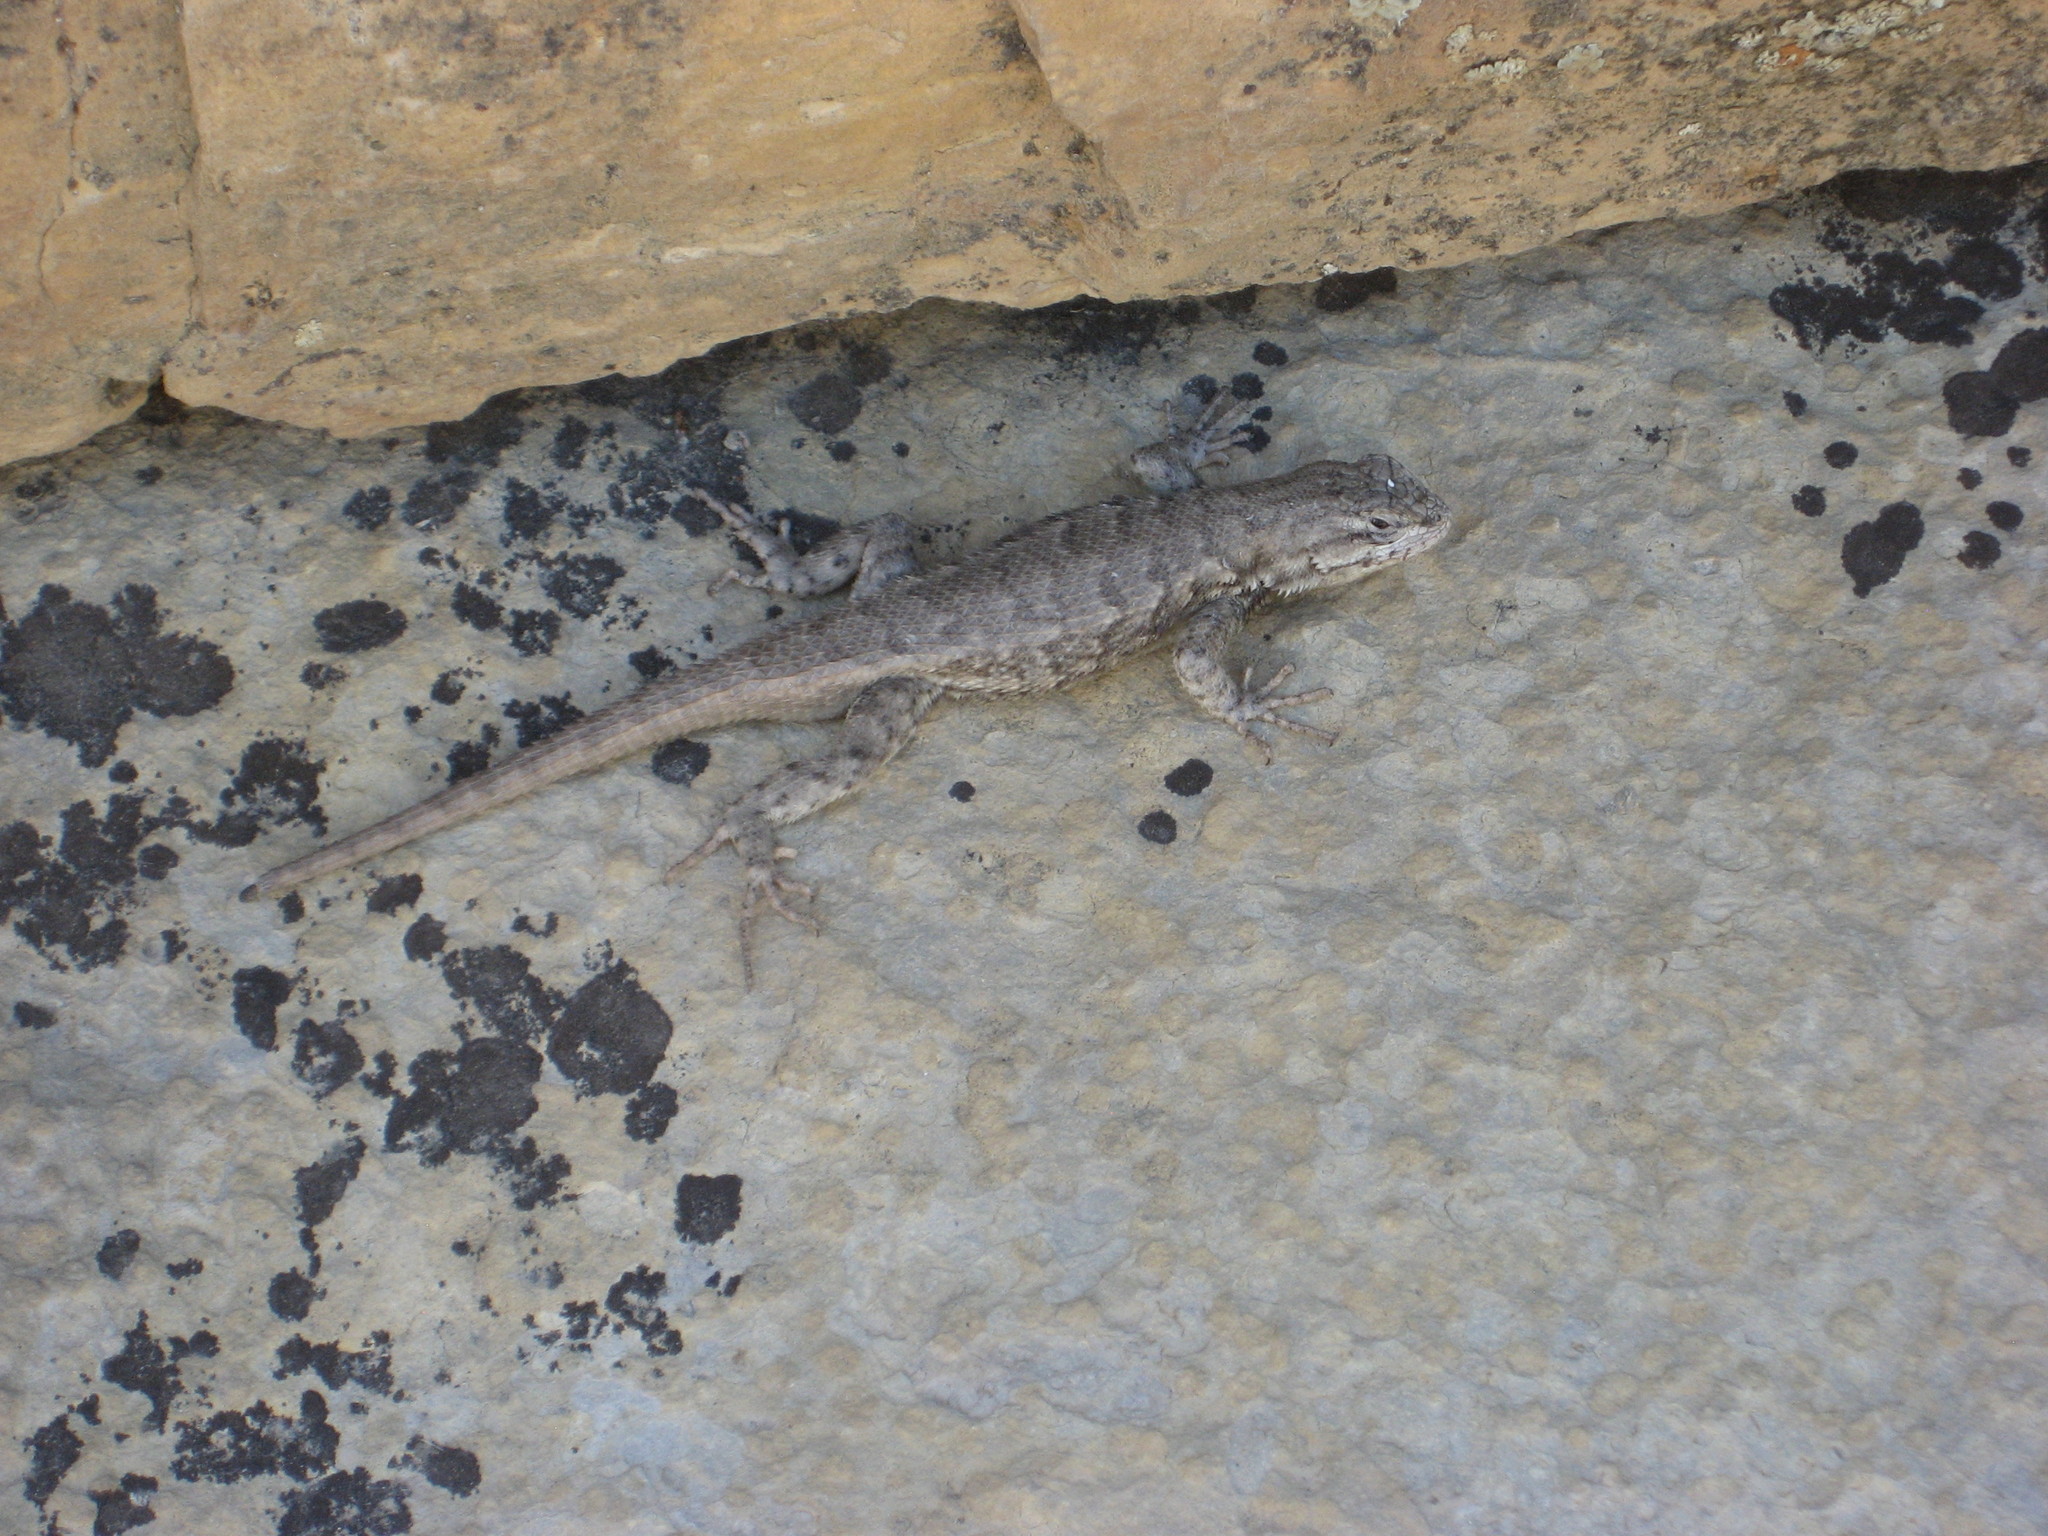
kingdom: Animalia
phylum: Chordata
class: Squamata
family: Phrynosomatidae
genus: Sceloporus
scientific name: Sceloporus consobrinus
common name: Southern prairie lizard
